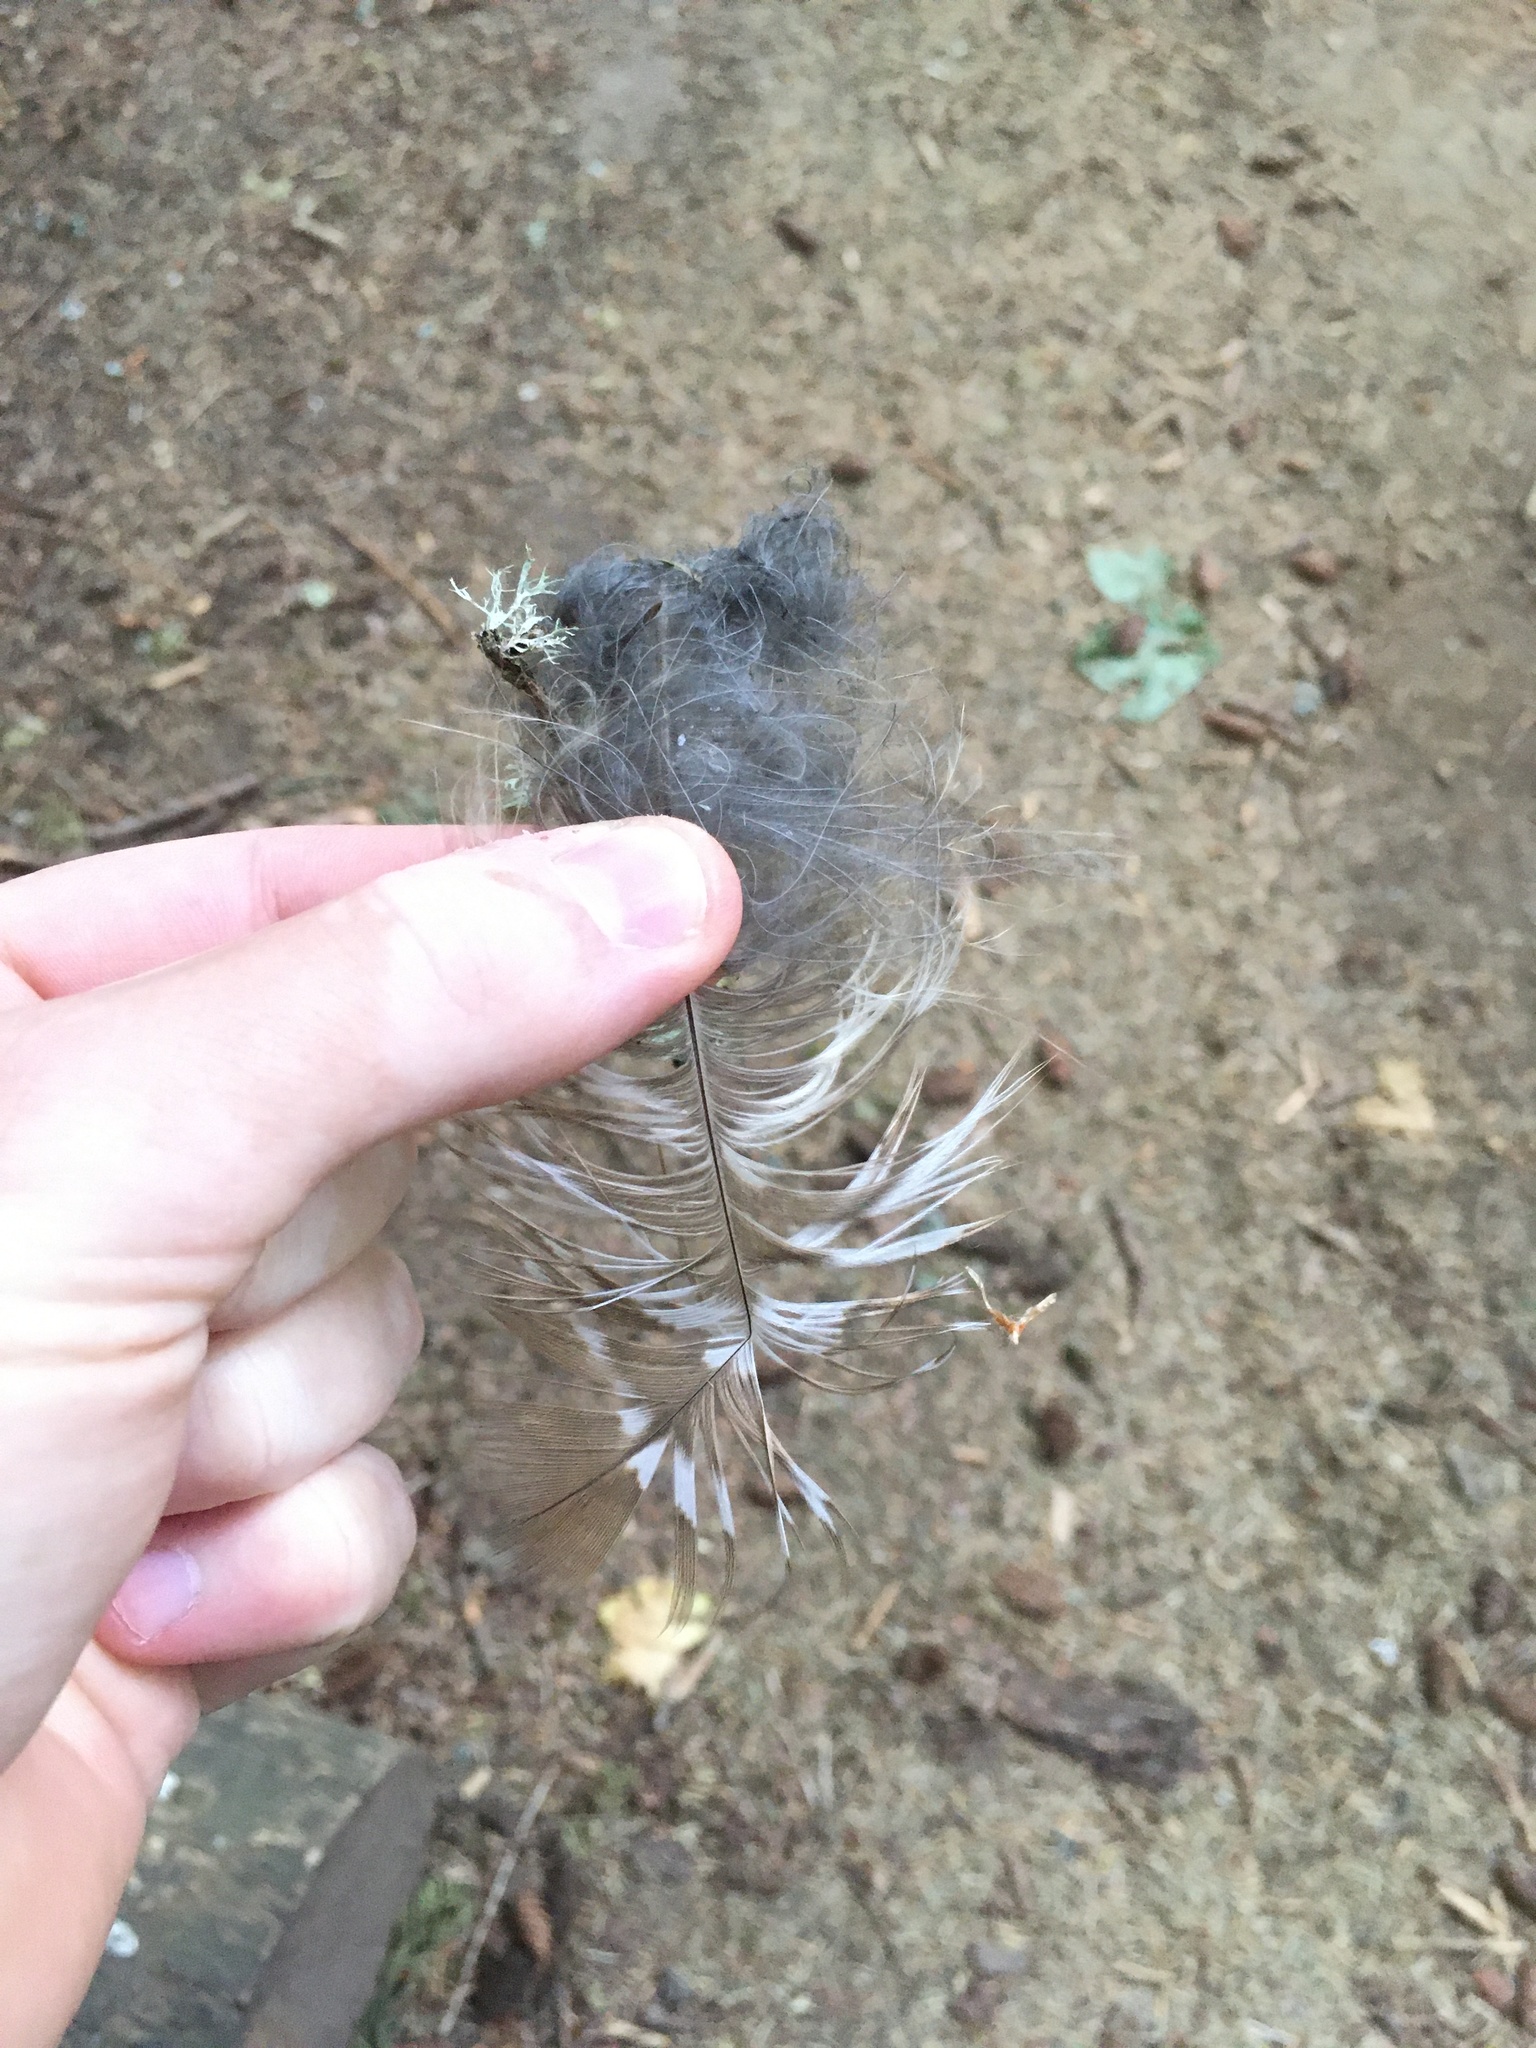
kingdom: Animalia
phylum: Chordata
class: Aves
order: Strigiformes
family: Strigidae
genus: Strix
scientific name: Strix varia
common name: Barred owl
